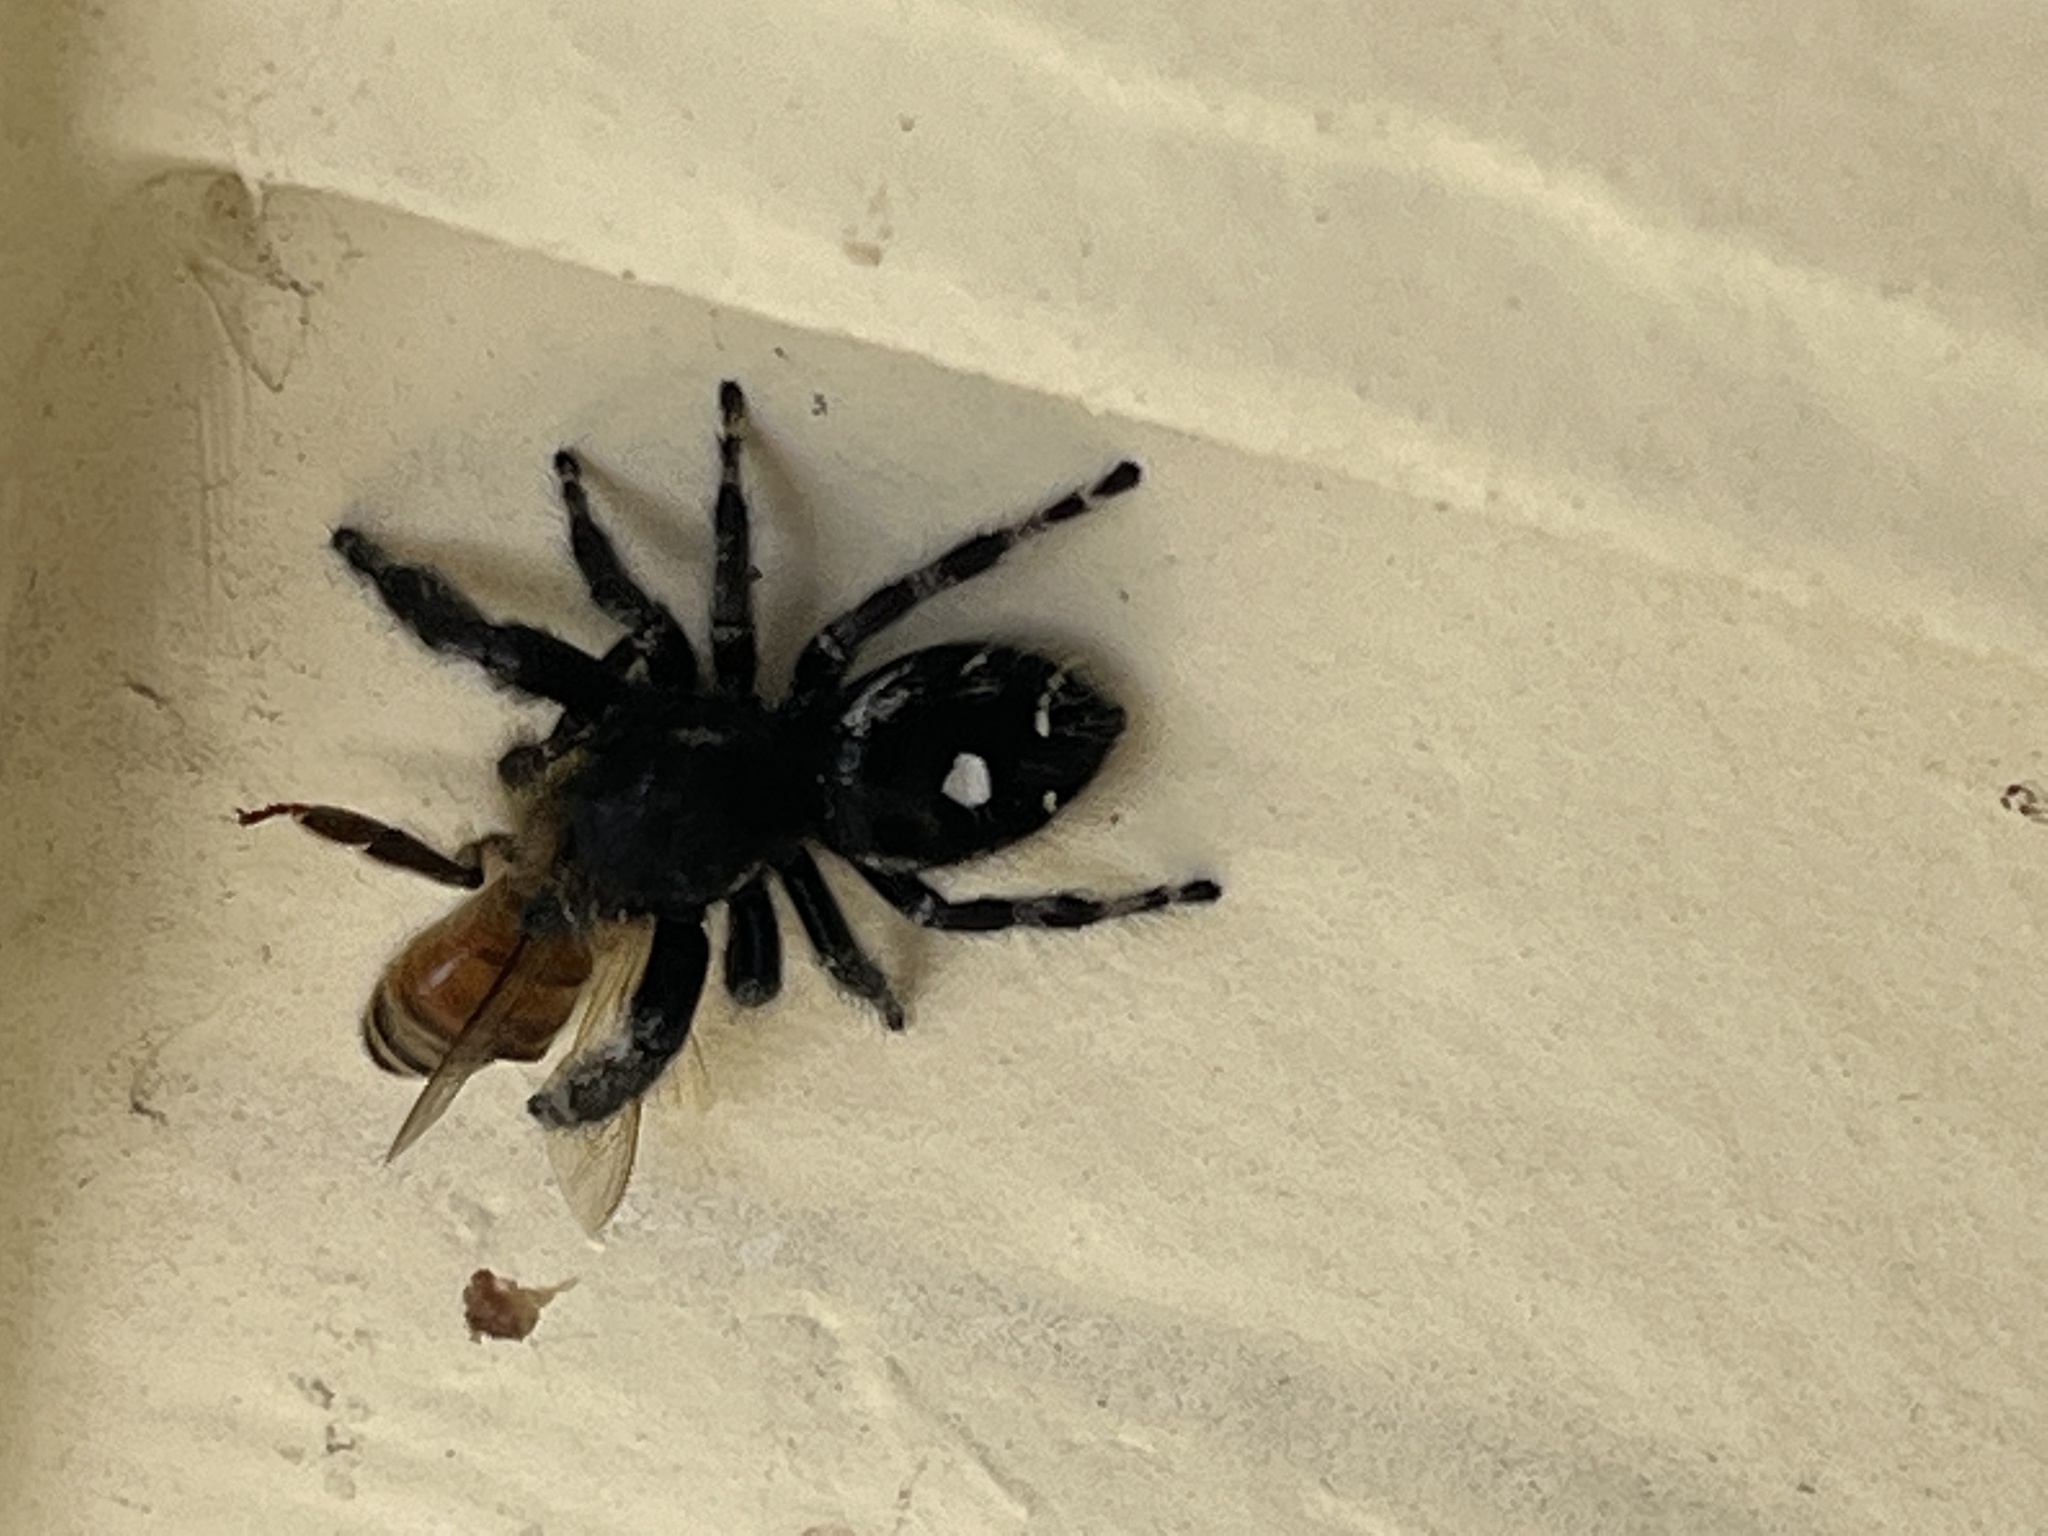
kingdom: Animalia
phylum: Arthropoda
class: Arachnida
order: Araneae
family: Salticidae
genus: Phidippus
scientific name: Phidippus audax
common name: Bold jumper
